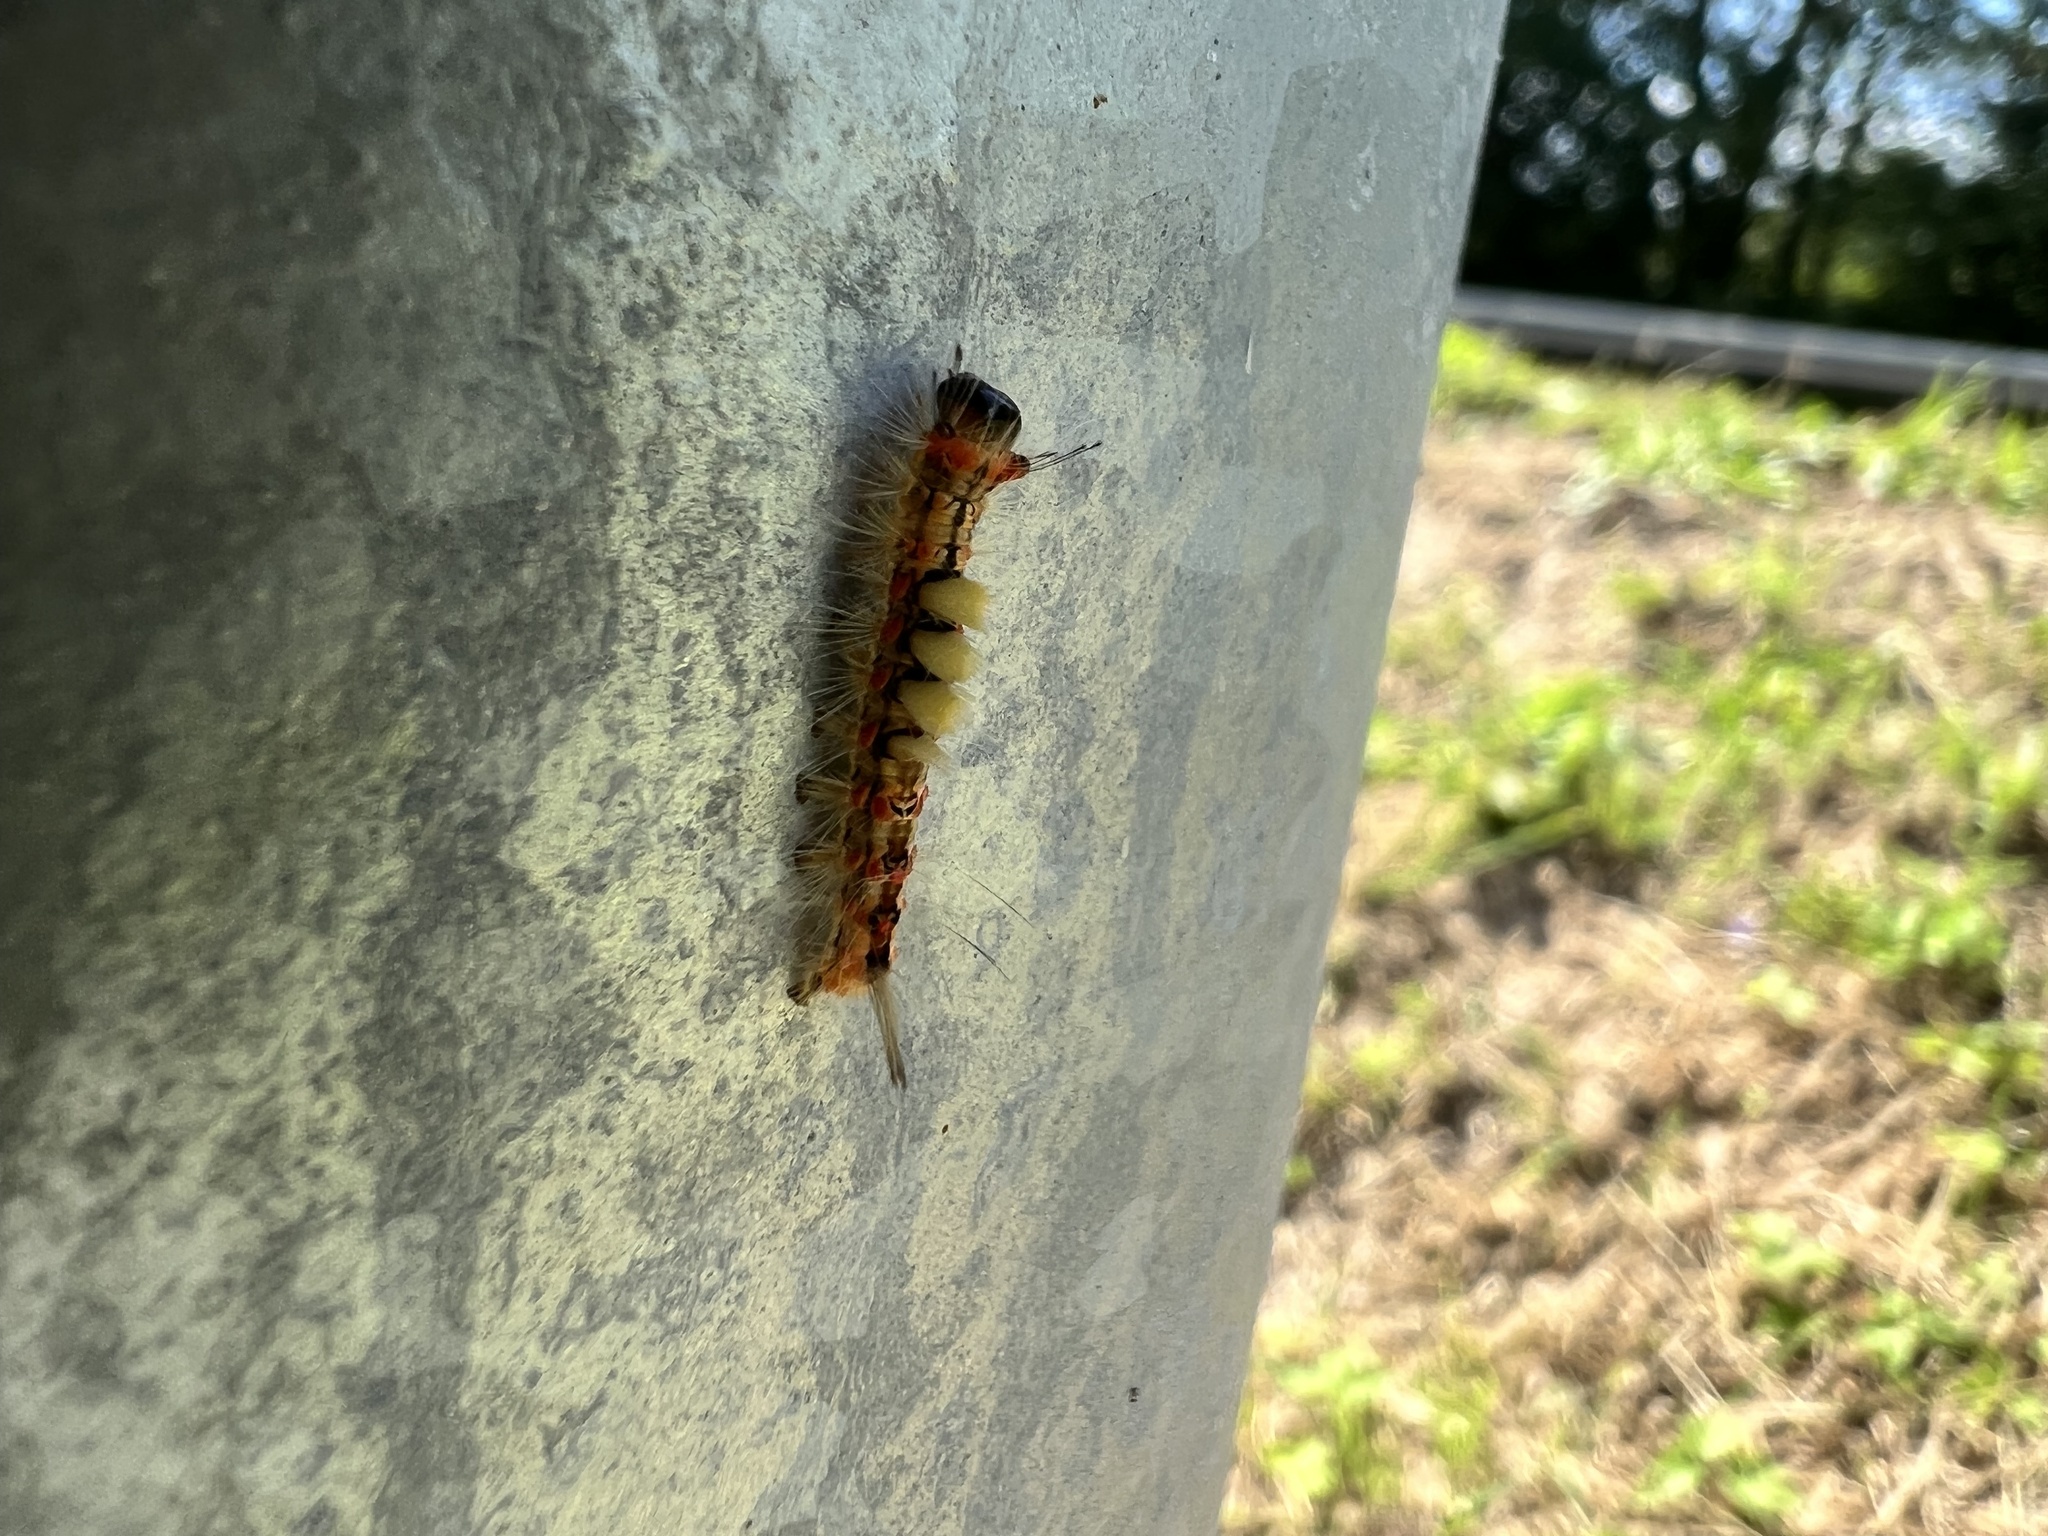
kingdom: Animalia
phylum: Arthropoda
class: Insecta
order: Lepidoptera
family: Erebidae
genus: Orgyia
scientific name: Orgyia antiqua
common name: Vapourer
